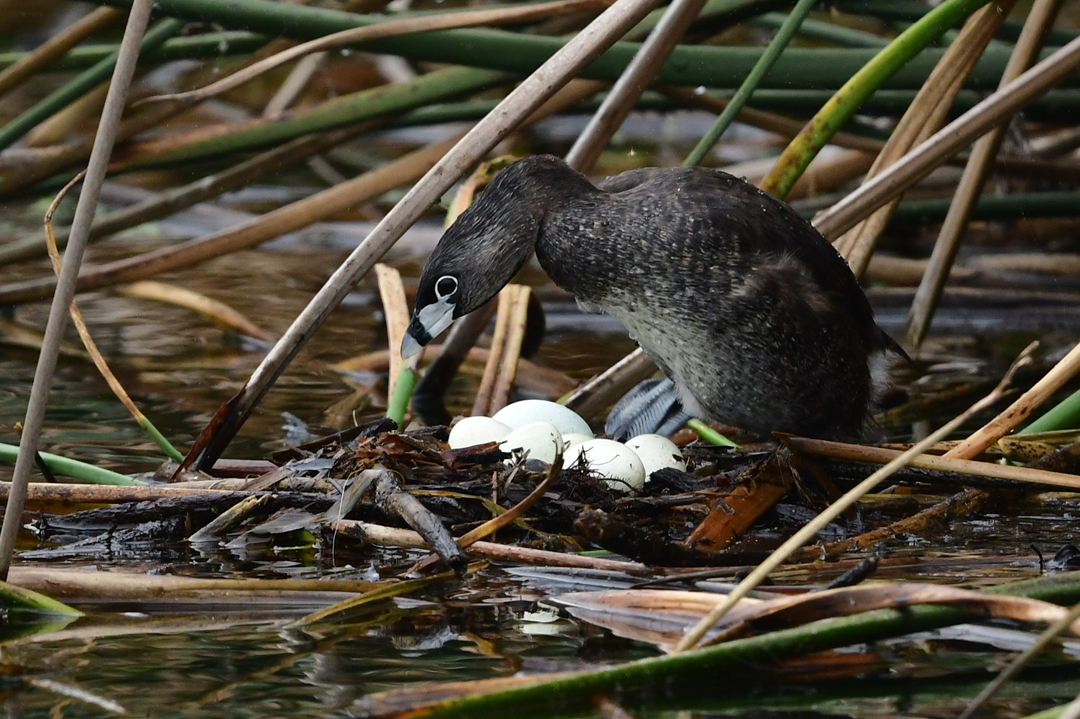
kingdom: Animalia
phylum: Chordata
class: Aves
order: Podicipediformes
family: Podicipedidae
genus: Podilymbus
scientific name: Podilymbus podiceps
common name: Pied-billed grebe
